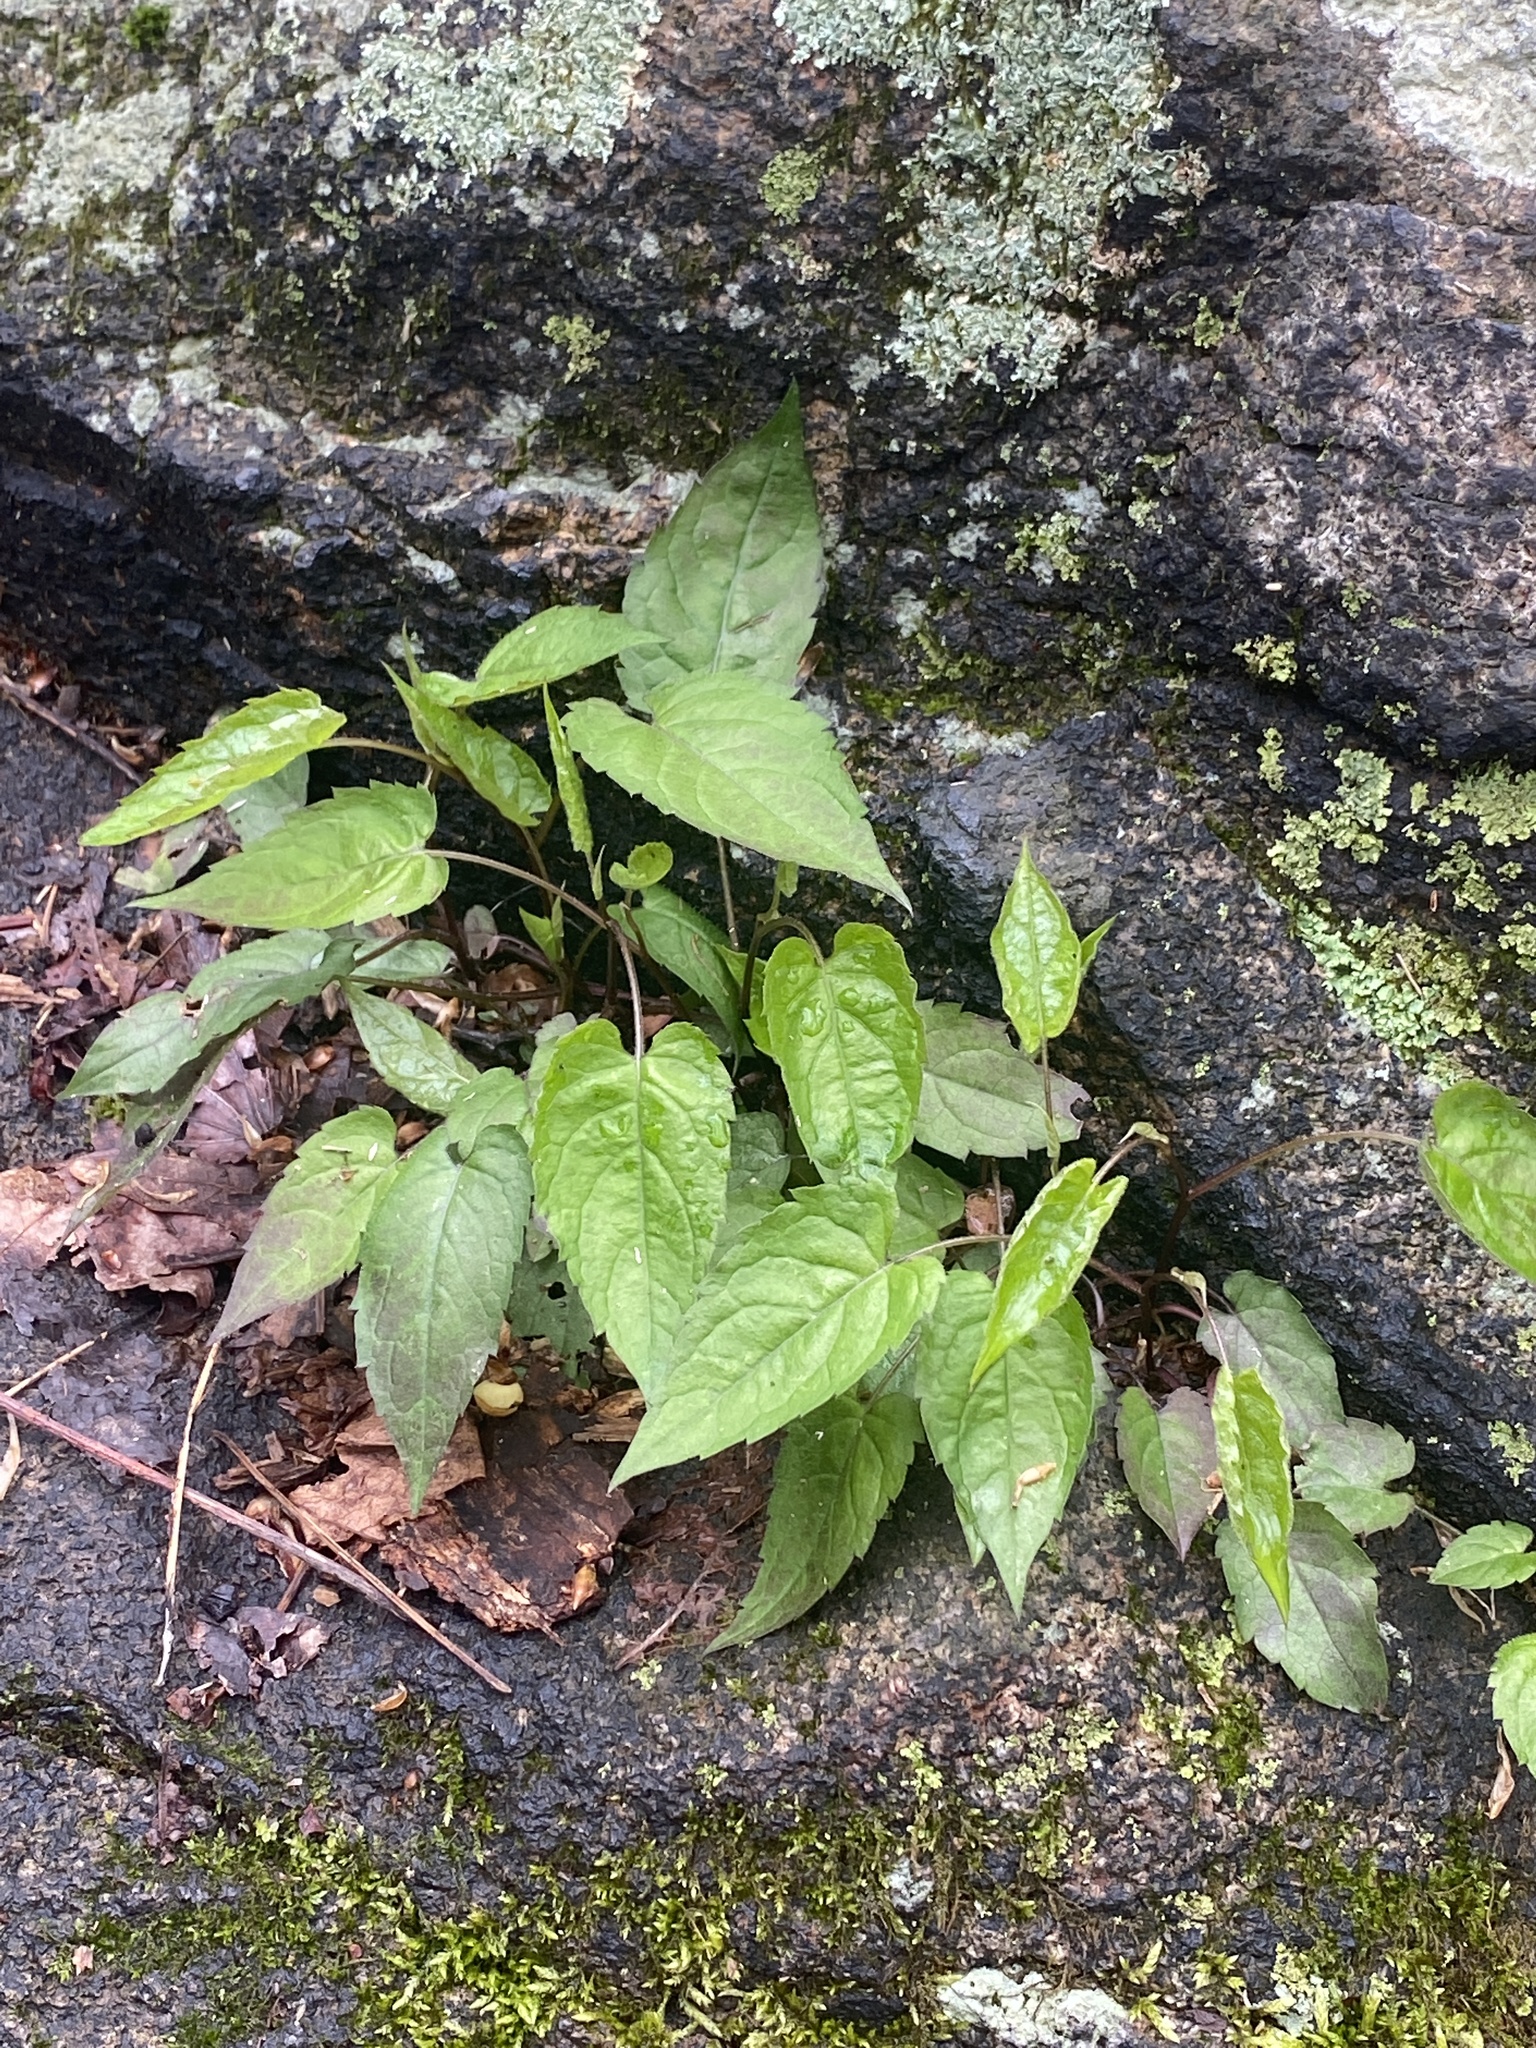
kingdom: Plantae
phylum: Tracheophyta
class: Magnoliopsida
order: Asterales
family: Asteraceae
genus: Eurybia
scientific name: Eurybia divaricata
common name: White wood aster
